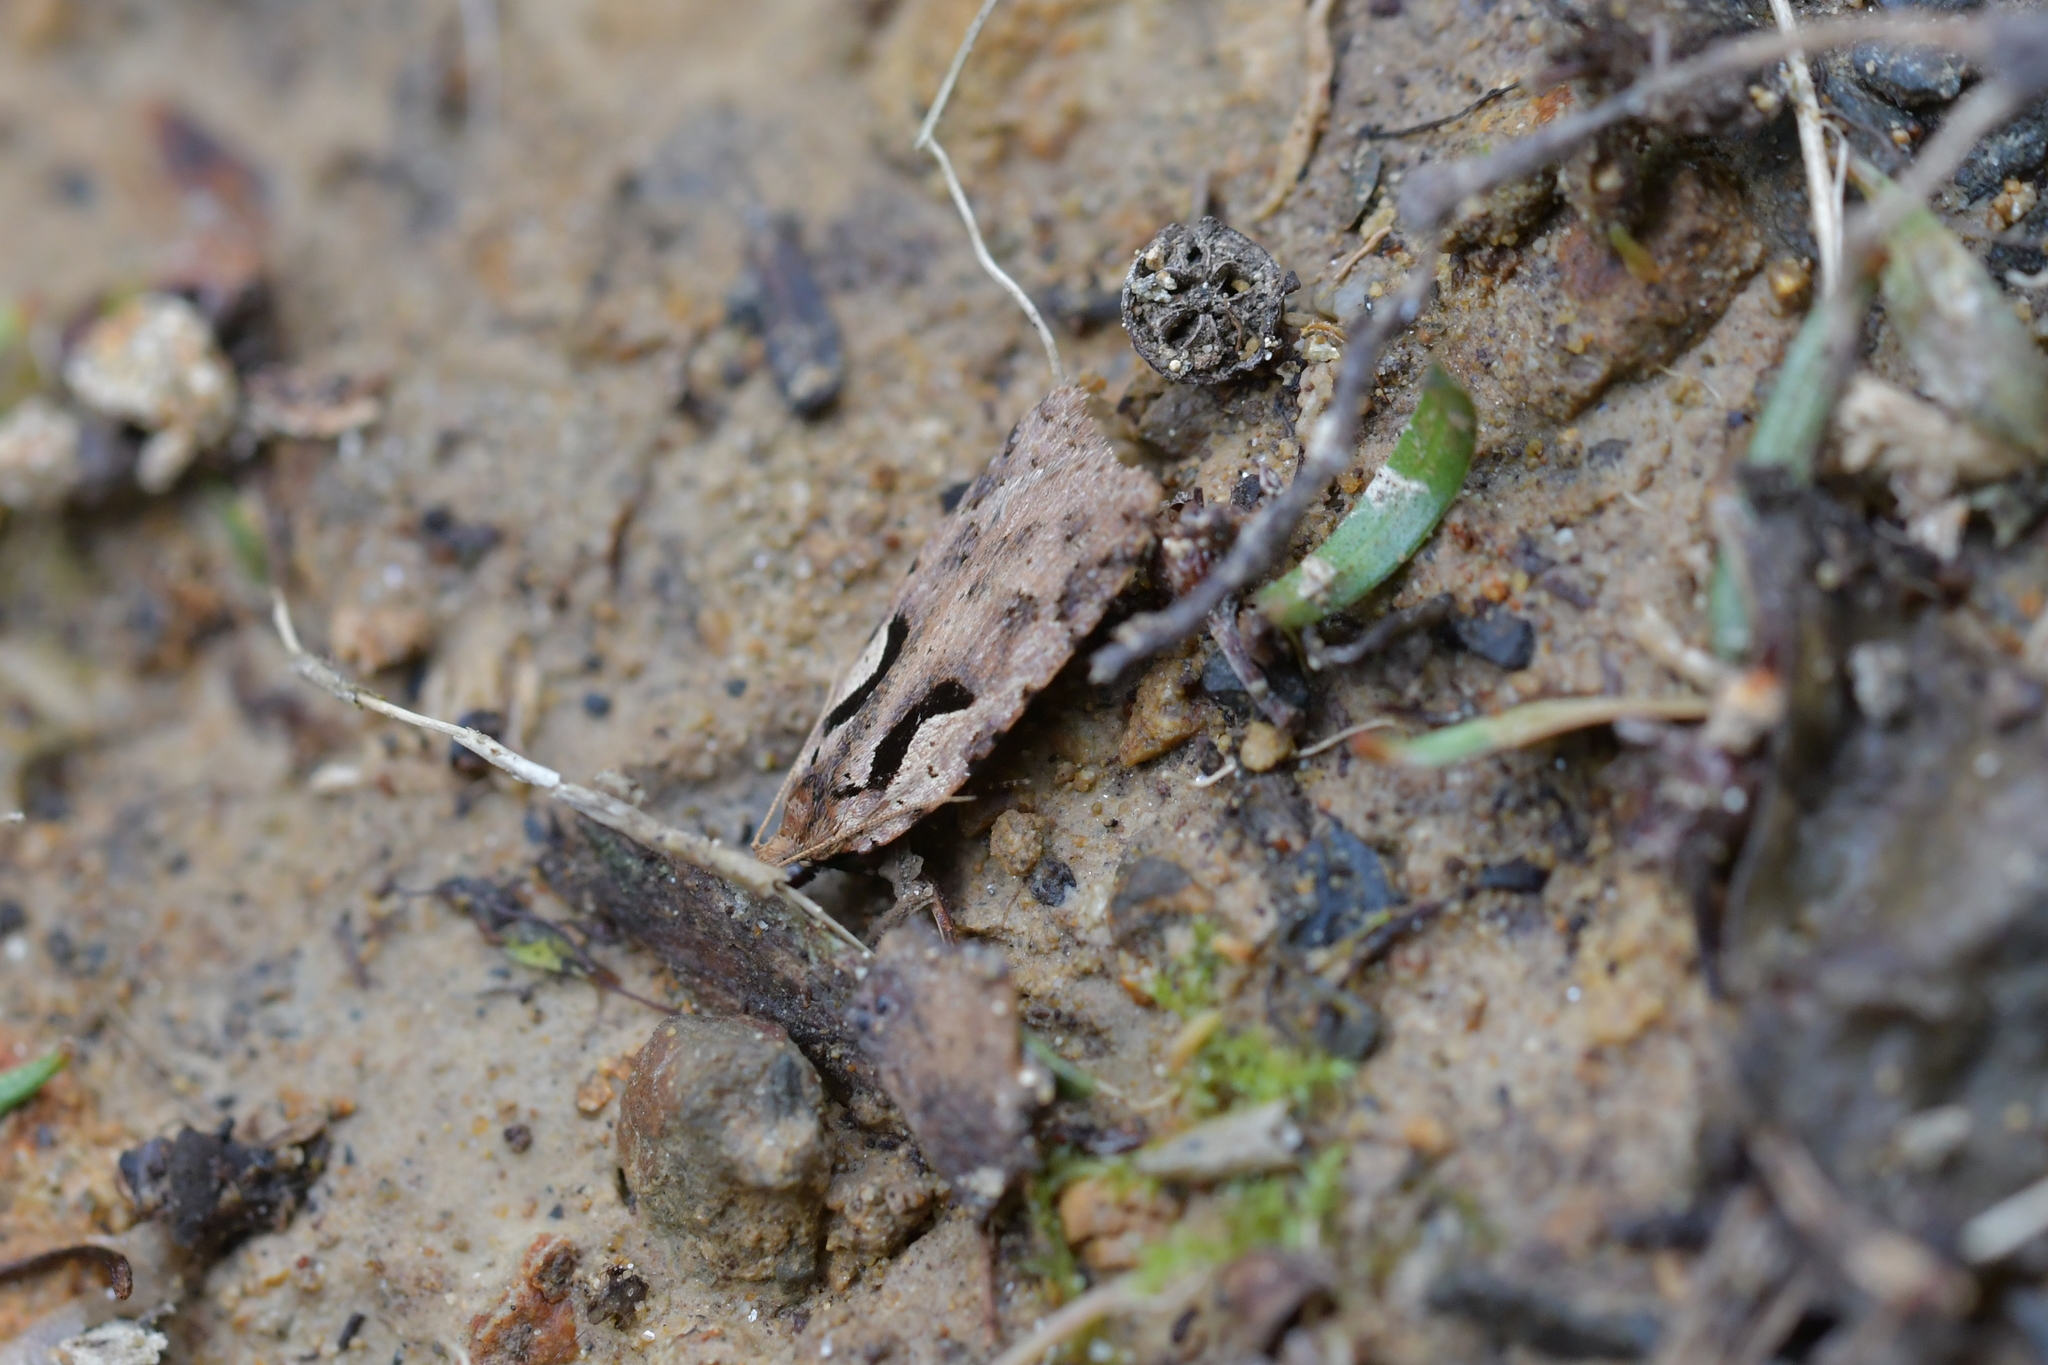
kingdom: Animalia
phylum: Arthropoda
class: Insecta
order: Lepidoptera
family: Tortricidae
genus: Cnephasia
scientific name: Cnephasia jactatana
